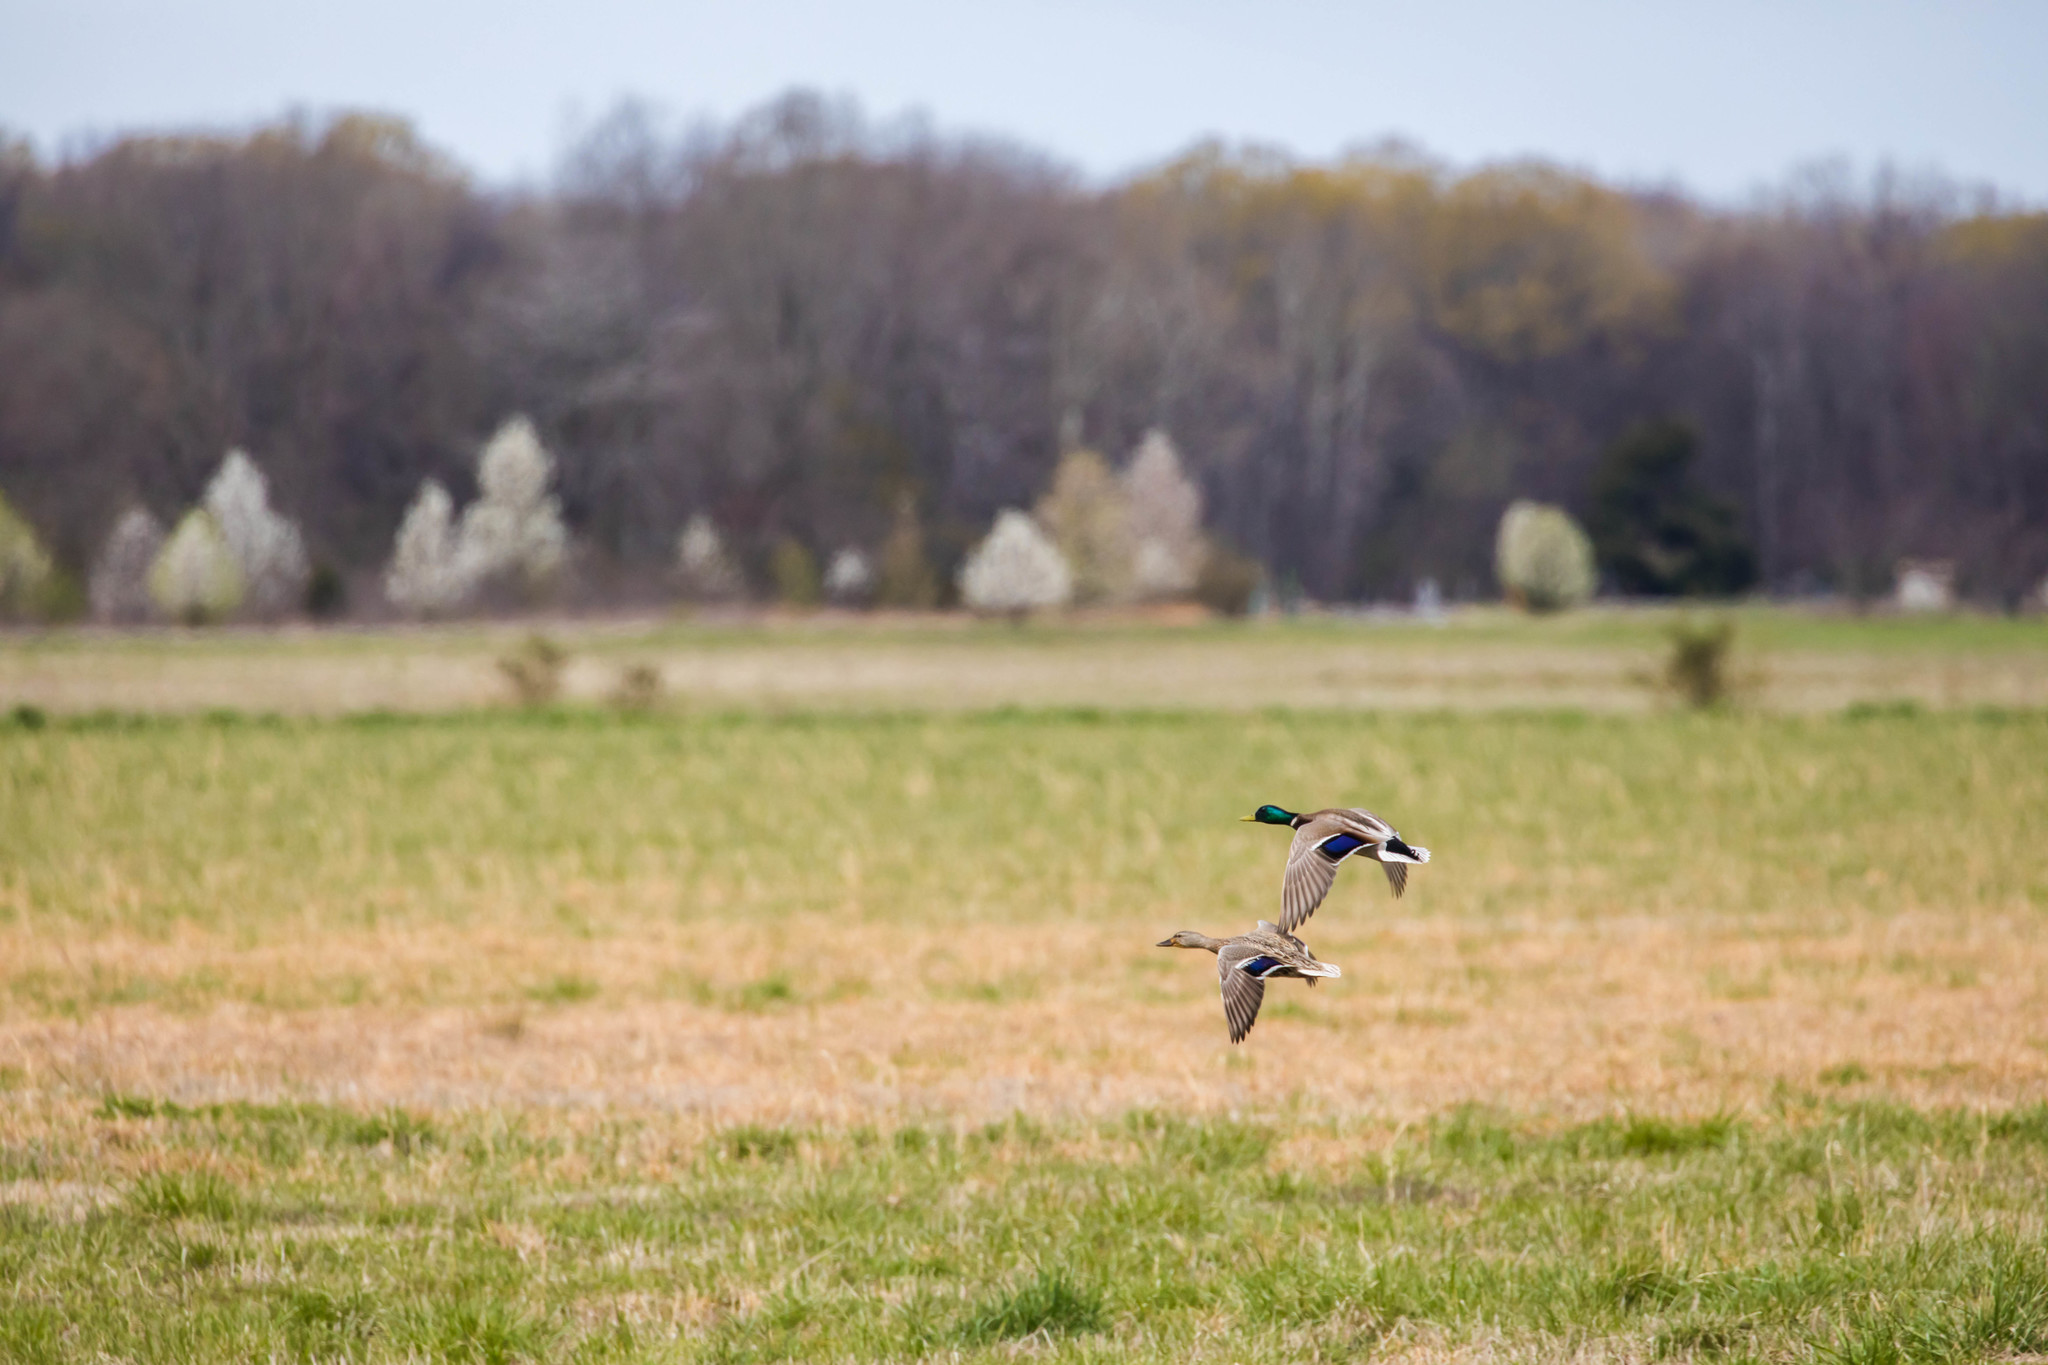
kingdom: Animalia
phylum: Chordata
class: Aves
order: Anseriformes
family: Anatidae
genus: Anas
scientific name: Anas platyrhynchos
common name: Mallard
